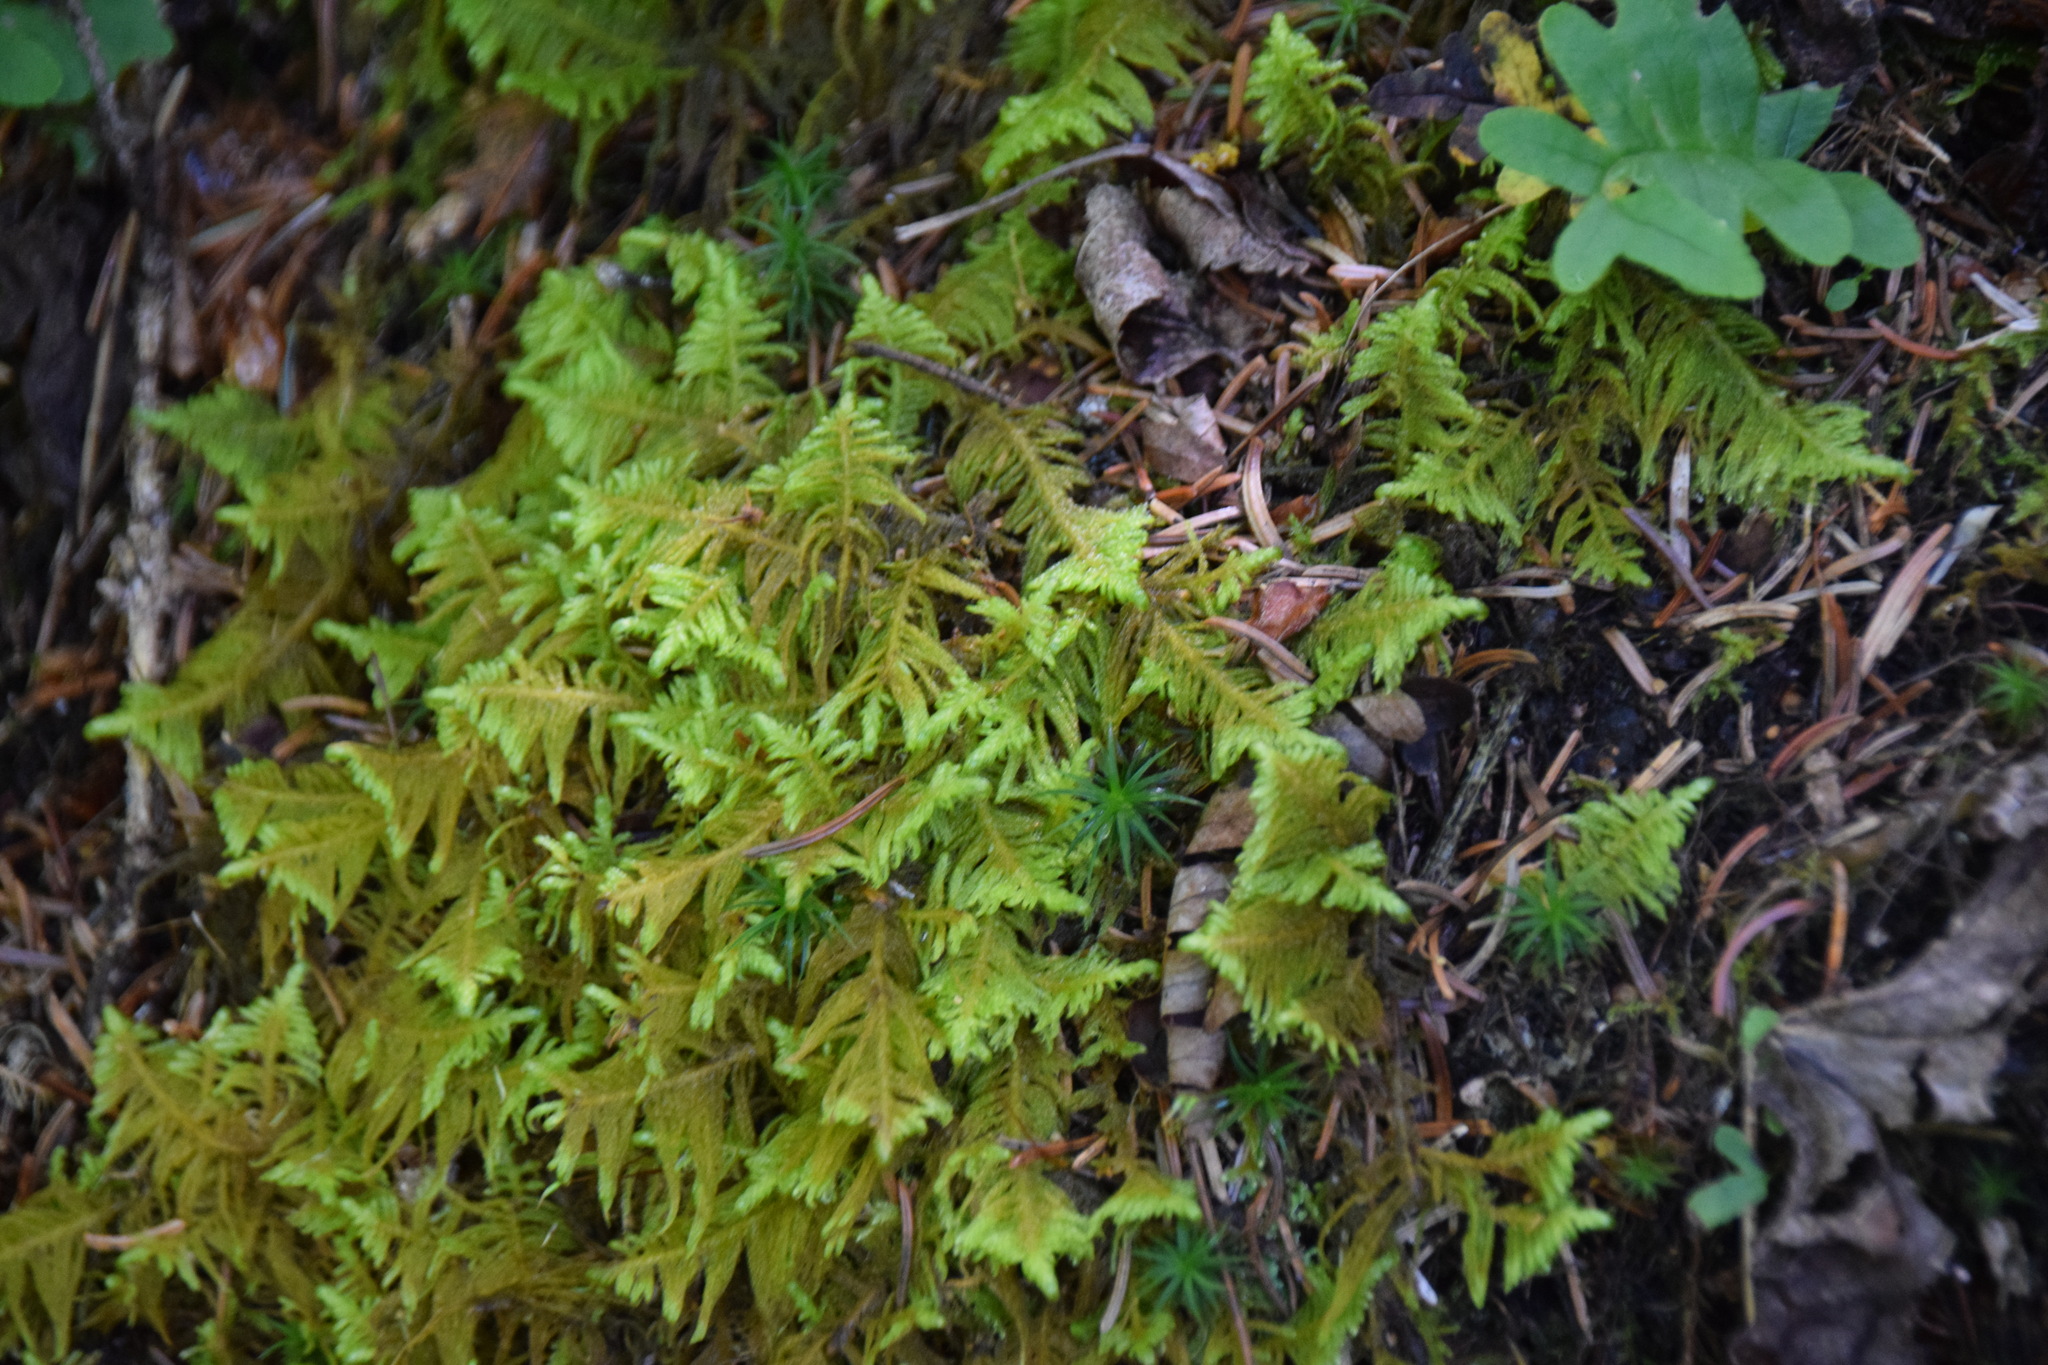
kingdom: Plantae
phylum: Bryophyta
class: Bryopsida
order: Hypnales
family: Pylaisiaceae
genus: Ptilium
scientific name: Ptilium crista-castrensis
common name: Knight's plume moss
